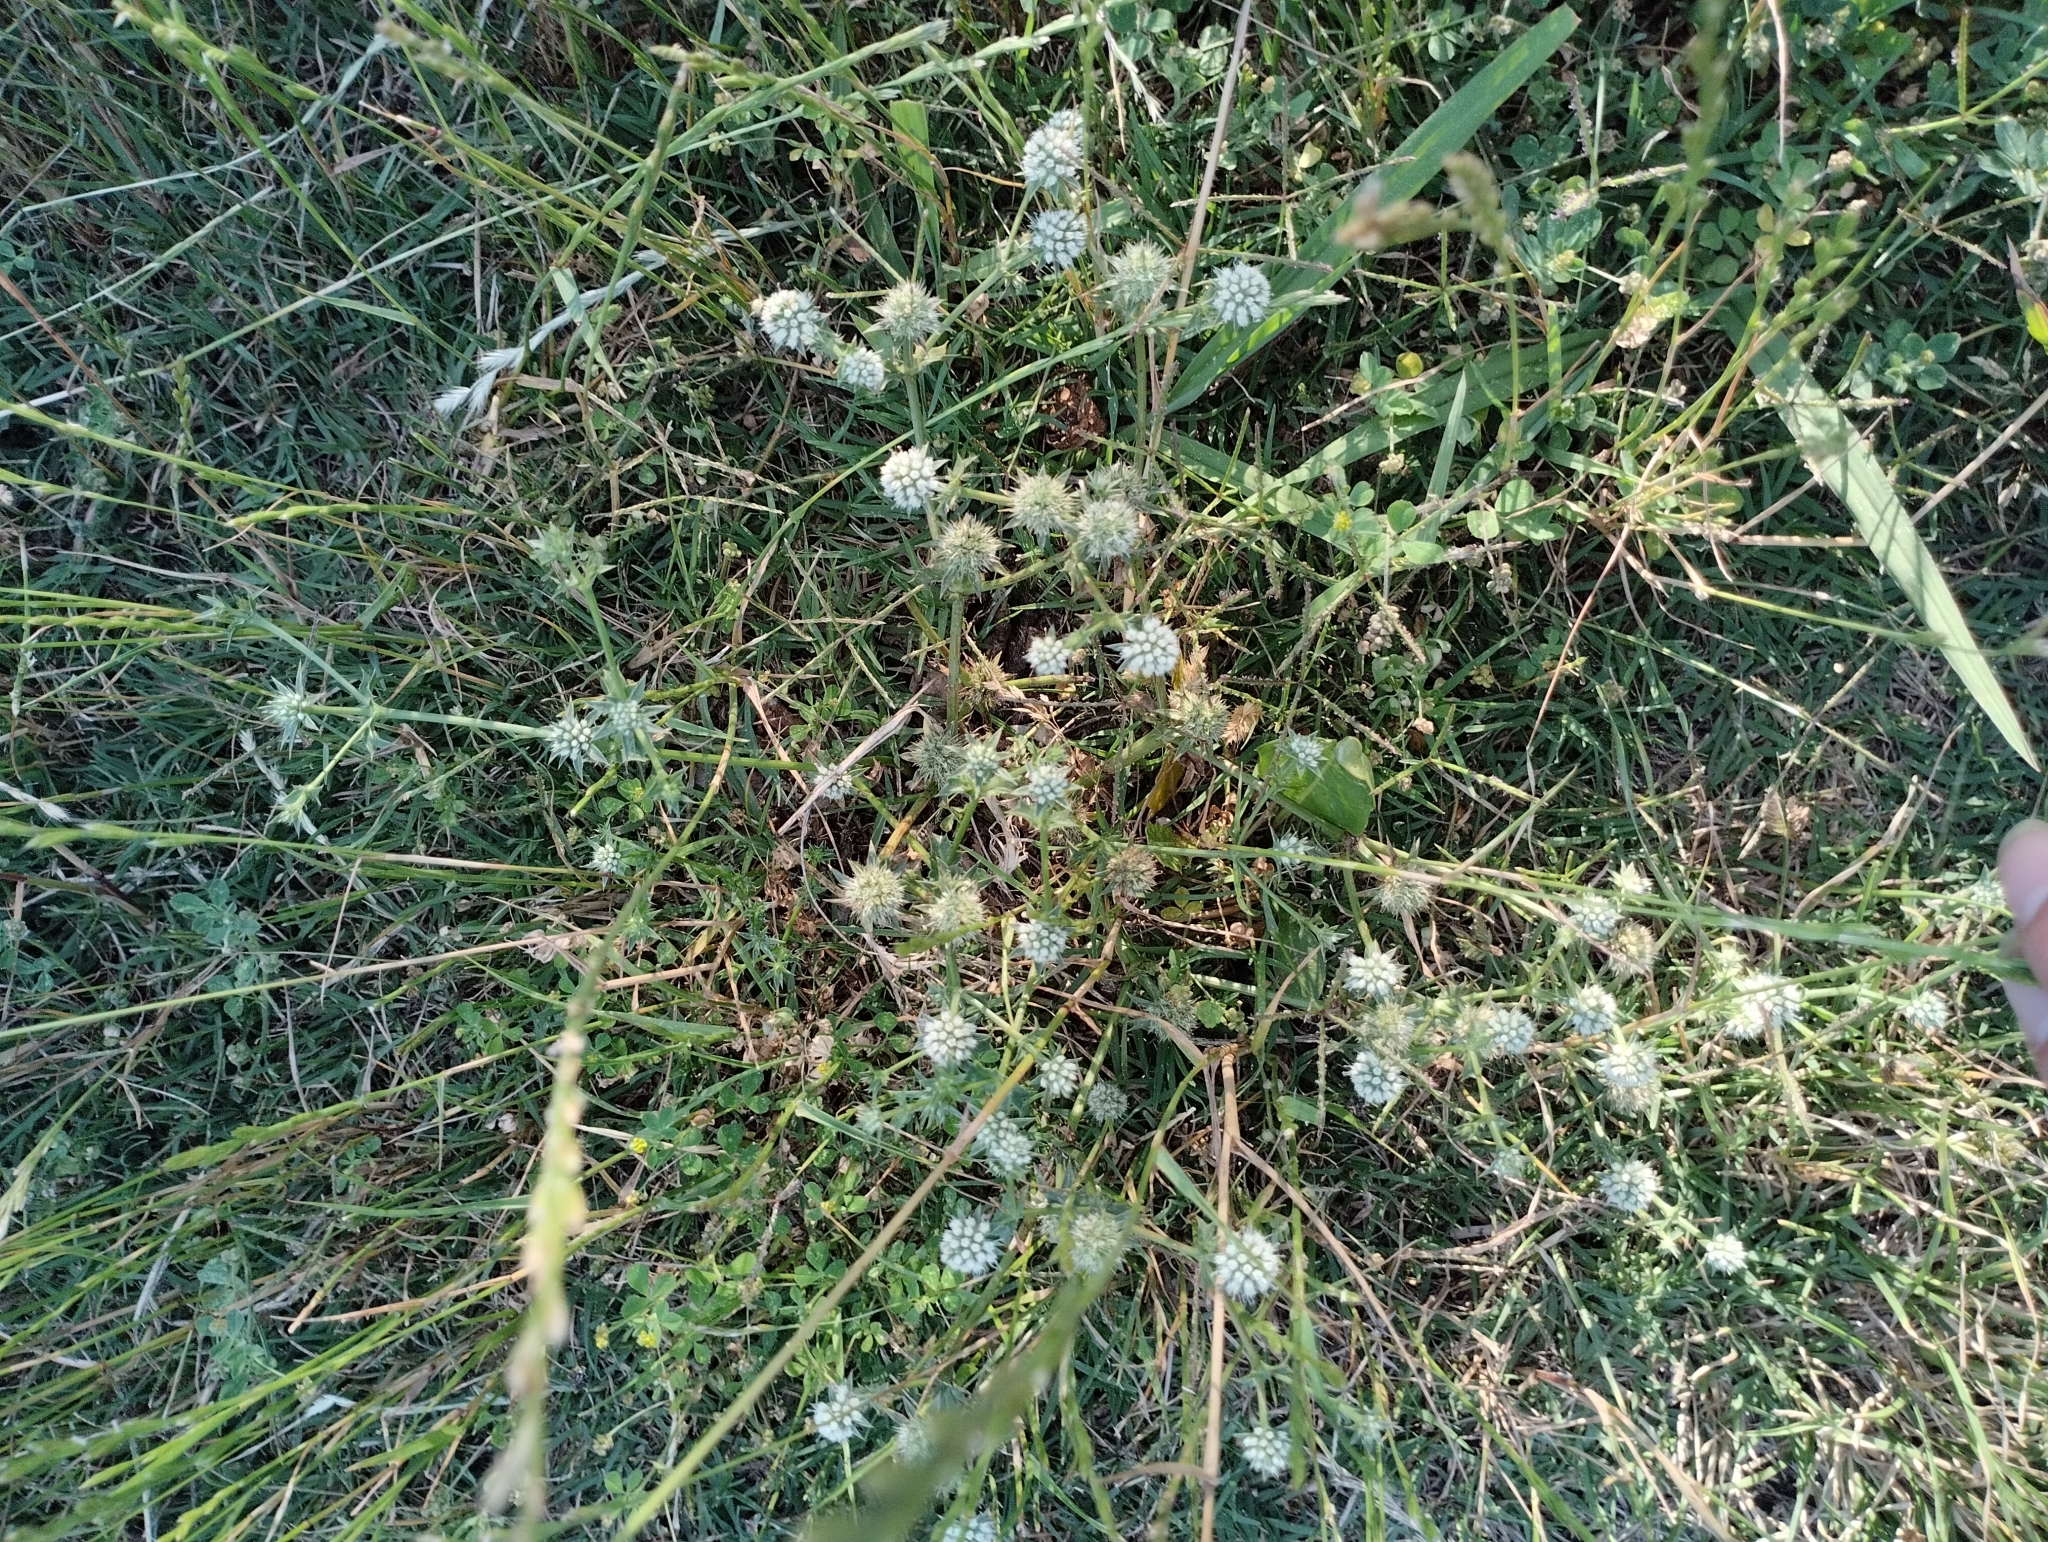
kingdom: Plantae
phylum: Tracheophyta
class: Magnoliopsida
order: Apiales
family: Apiaceae
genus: Eryngium
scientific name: Eryngium nudicaule
